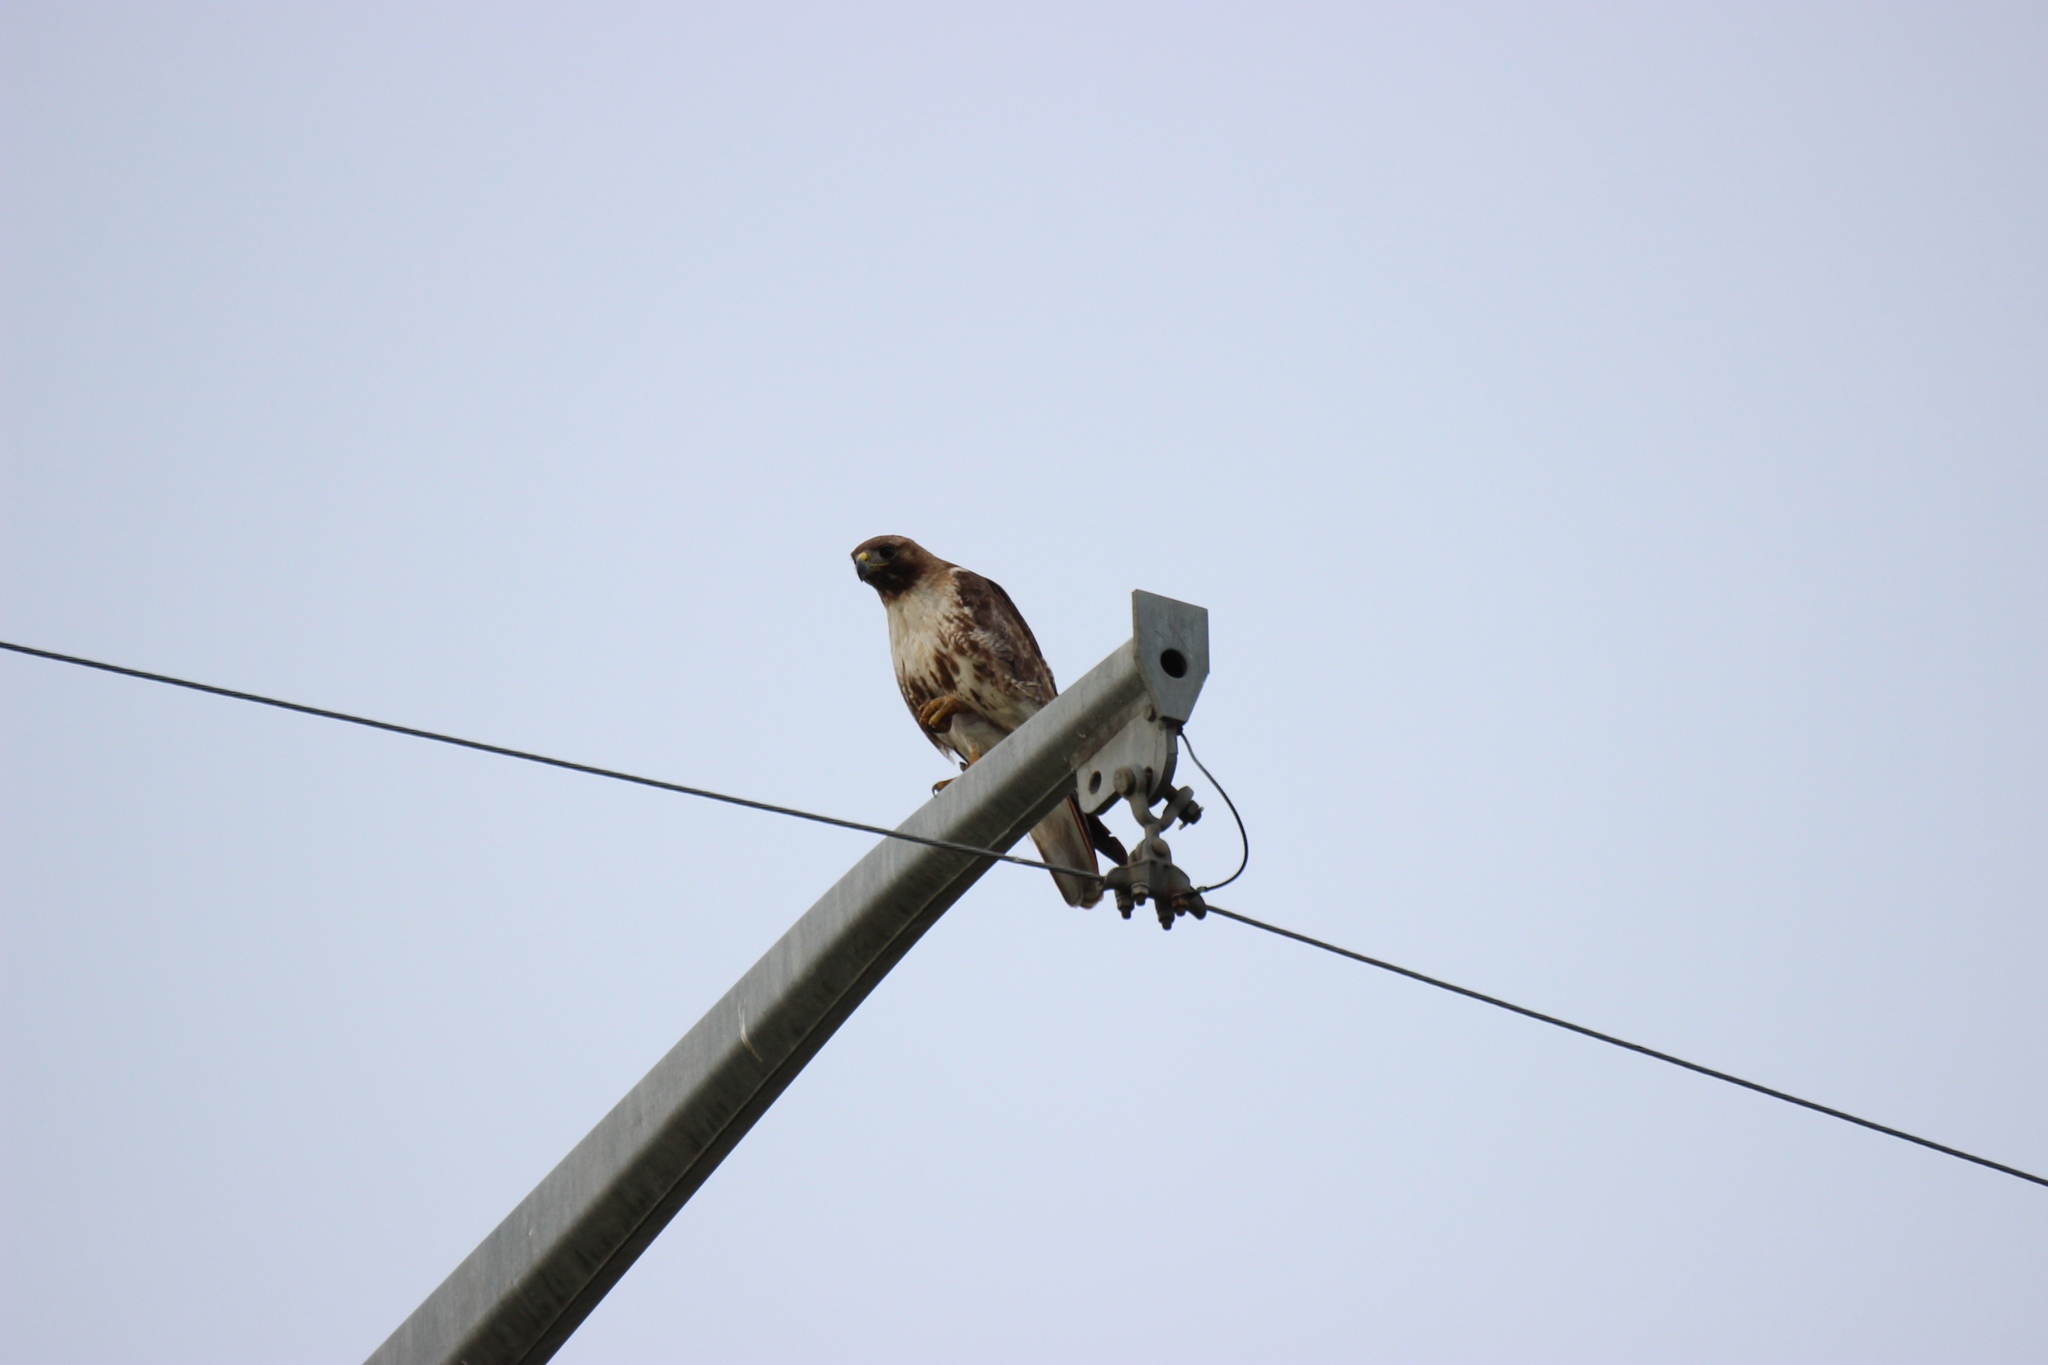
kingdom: Animalia
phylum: Chordata
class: Aves
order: Accipitriformes
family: Accipitridae
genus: Buteo
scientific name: Buteo jamaicensis
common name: Red-tailed hawk
